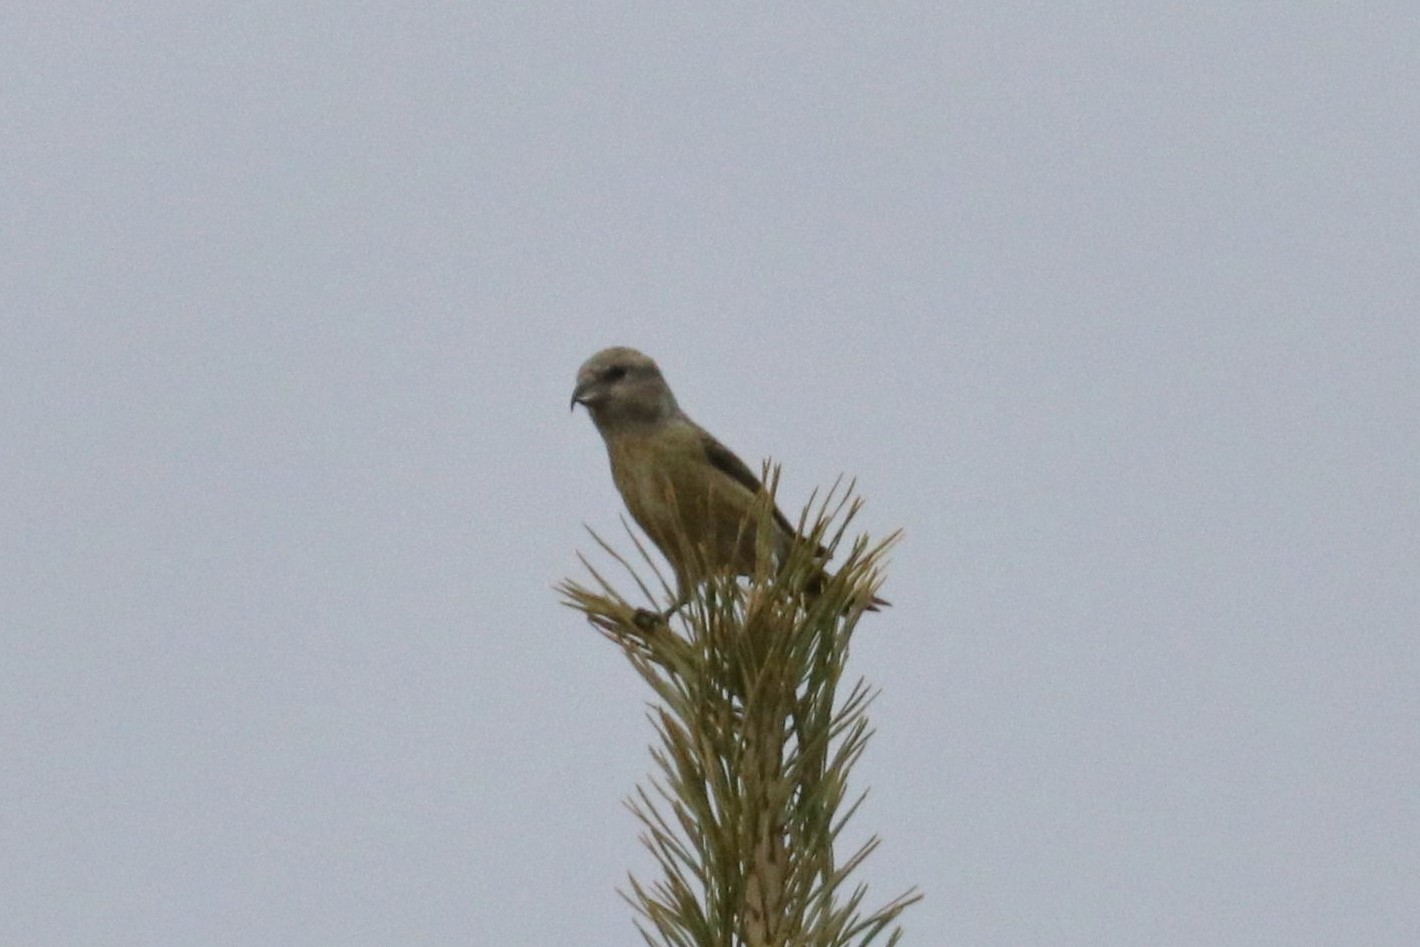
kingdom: Animalia
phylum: Chordata
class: Aves
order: Passeriformes
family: Fringillidae
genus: Loxia
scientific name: Loxia curvirostra
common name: Red crossbill
